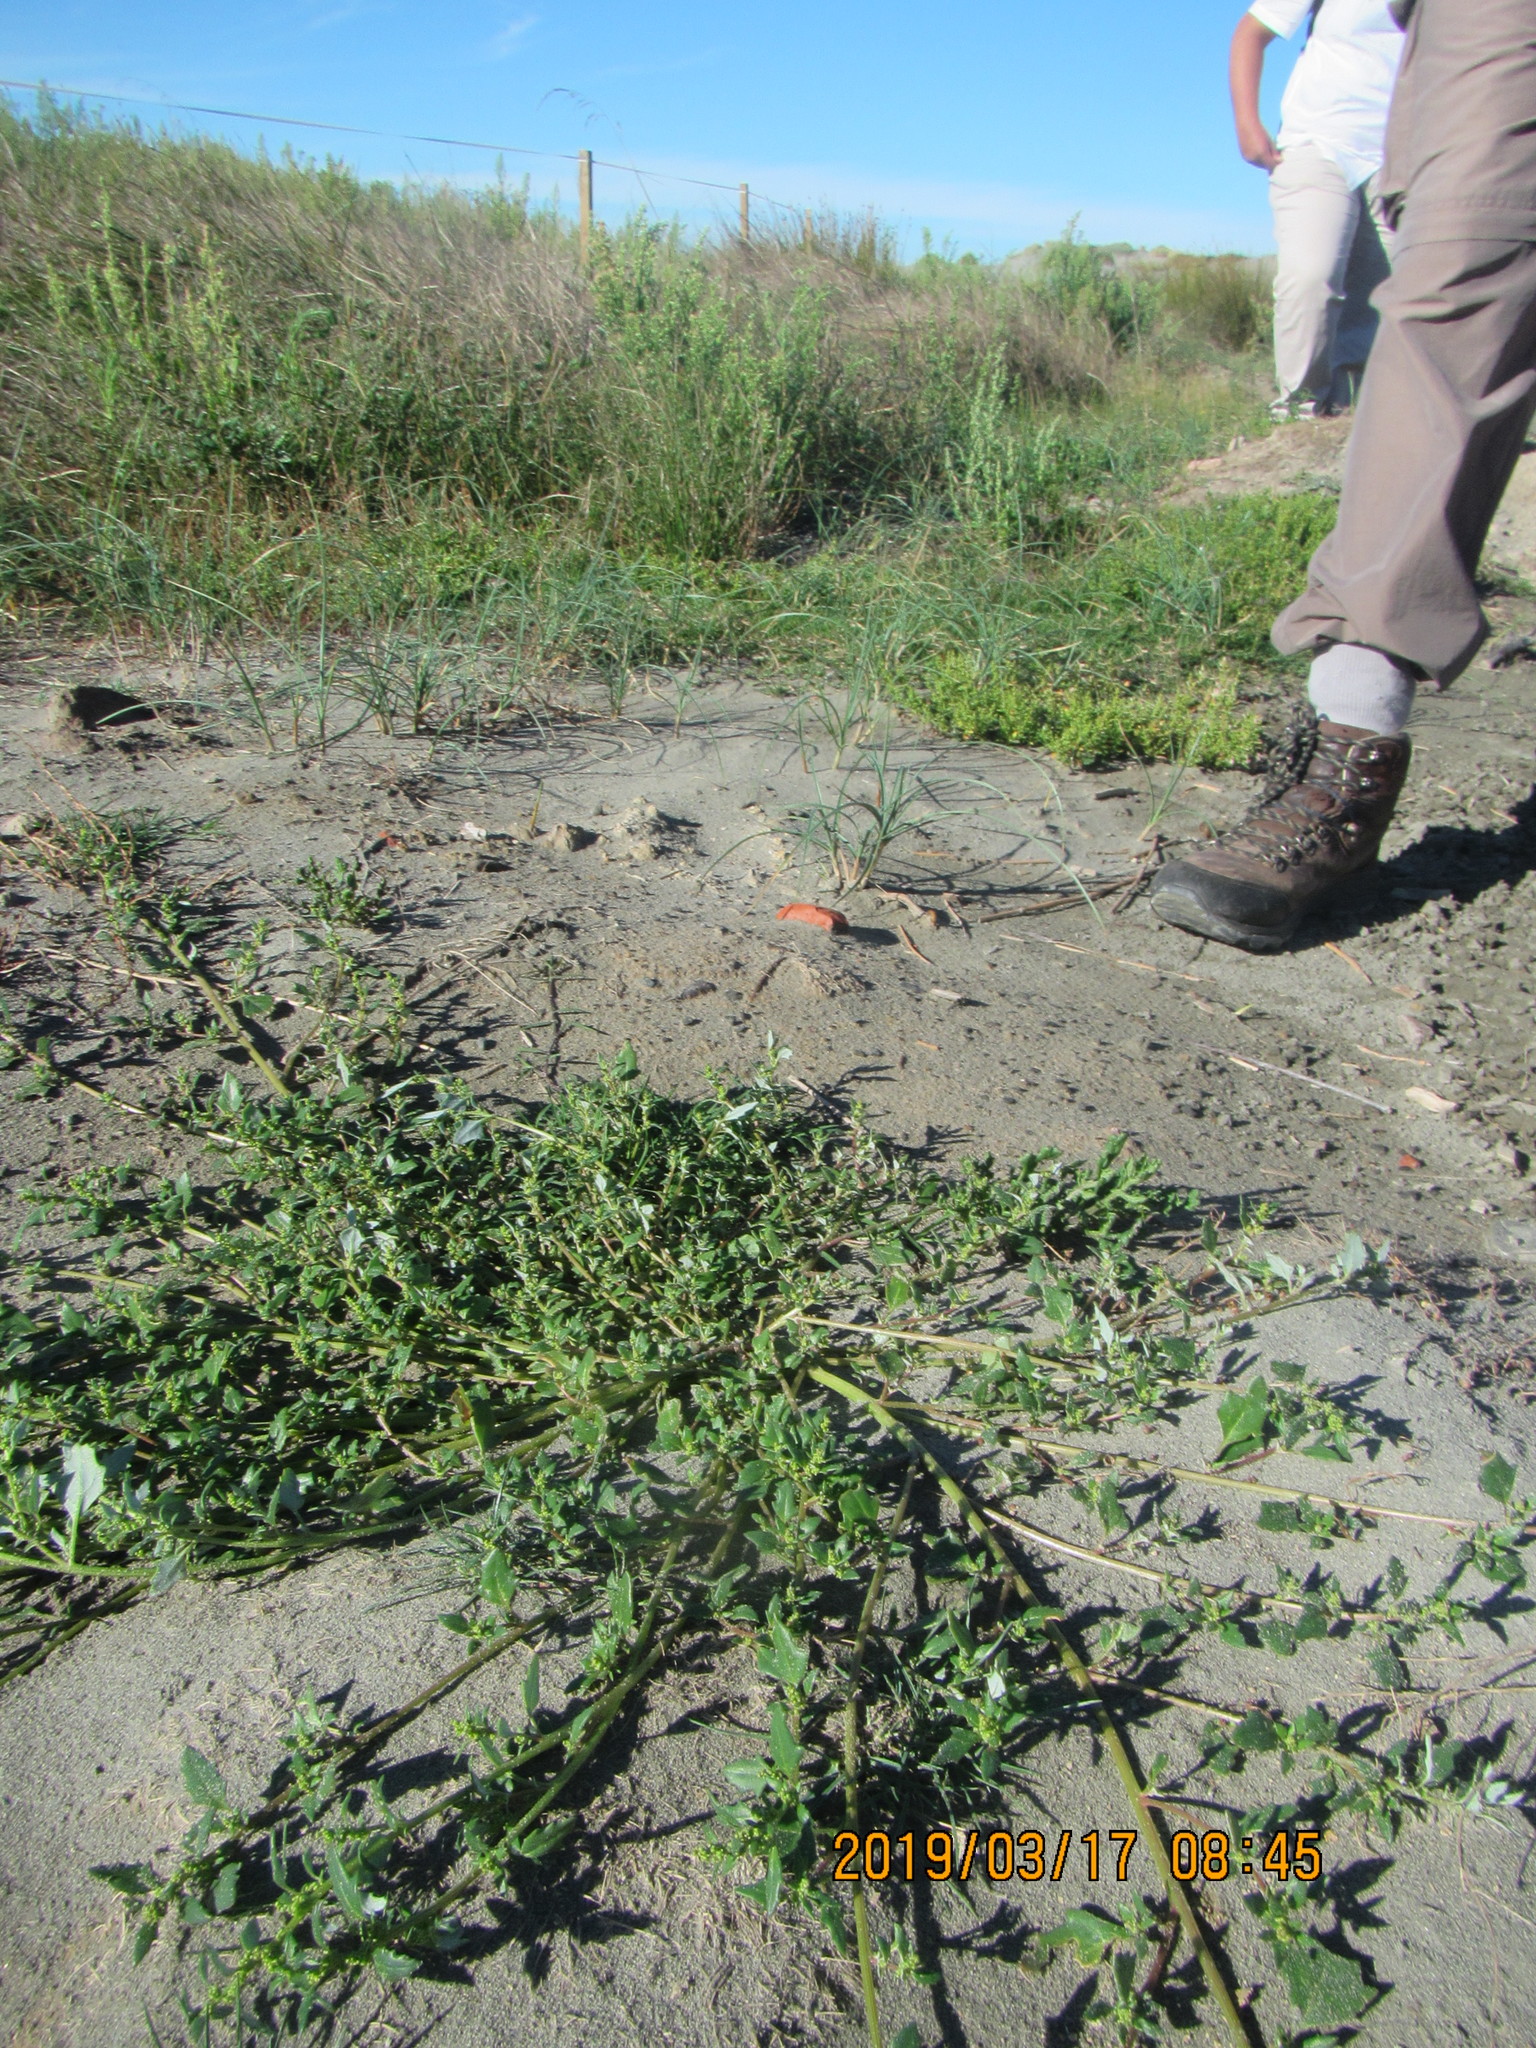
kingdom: Plantae
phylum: Tracheophyta
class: Magnoliopsida
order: Caryophyllales
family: Amaranthaceae
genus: Oxybasis
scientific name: Oxybasis ambigua
